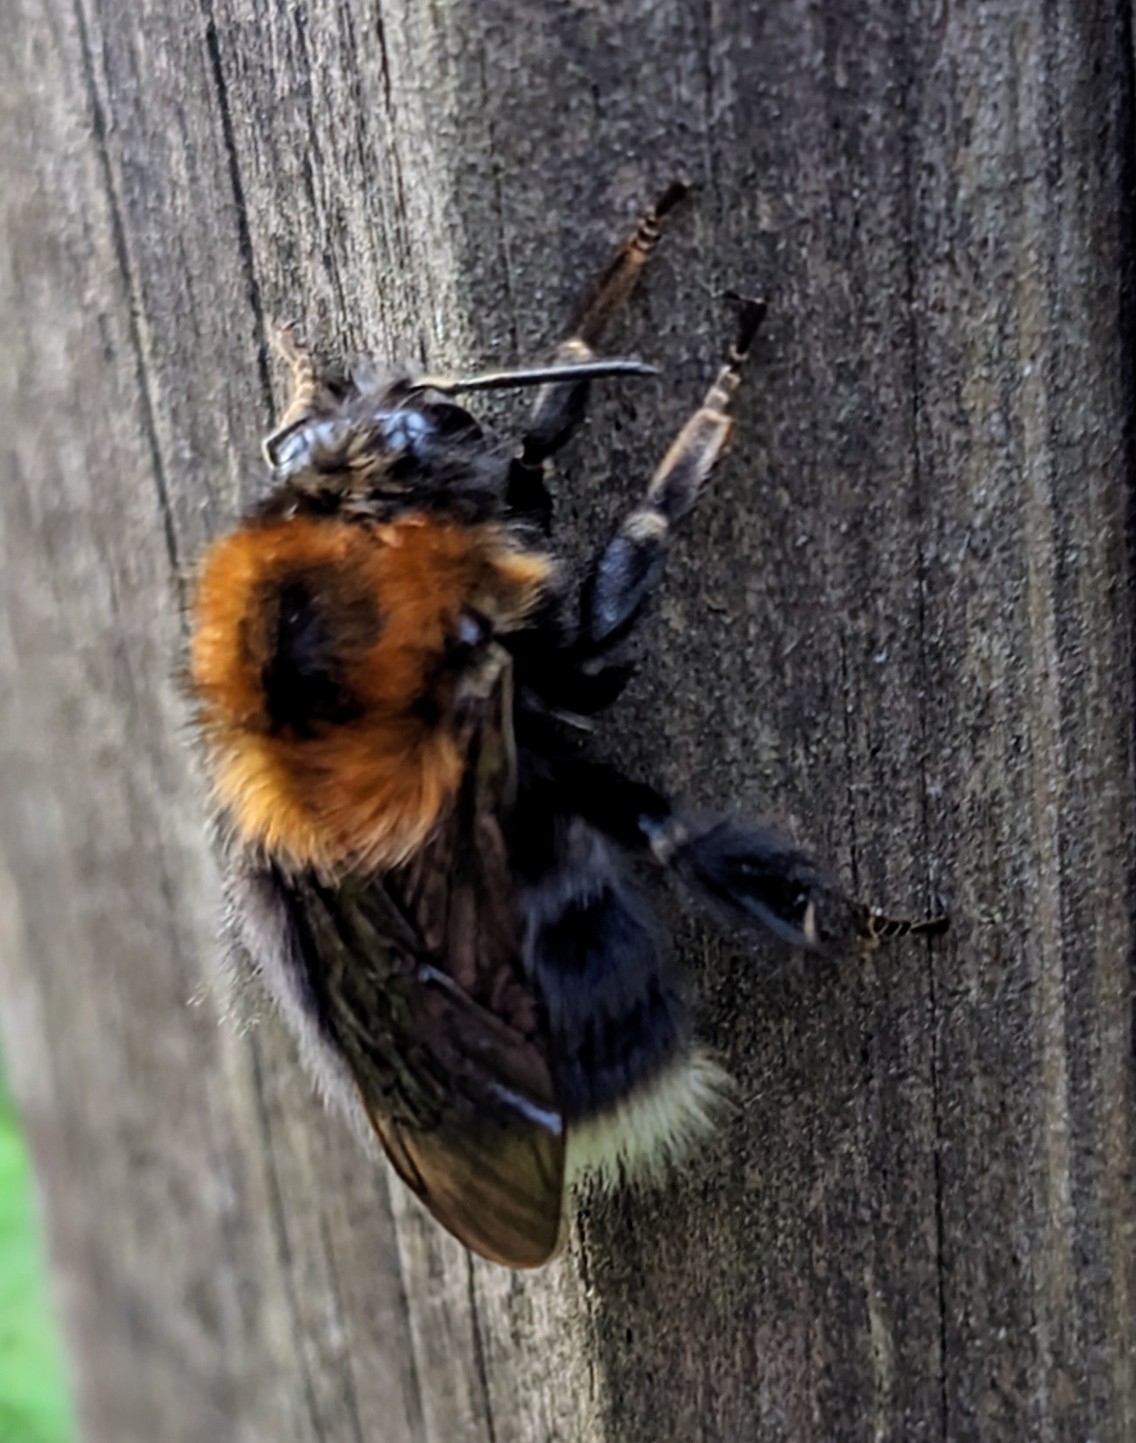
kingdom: Animalia
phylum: Arthropoda
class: Insecta
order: Hymenoptera
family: Apidae
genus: Bombus
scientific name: Bombus hypnorum
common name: New garden bumblebee
